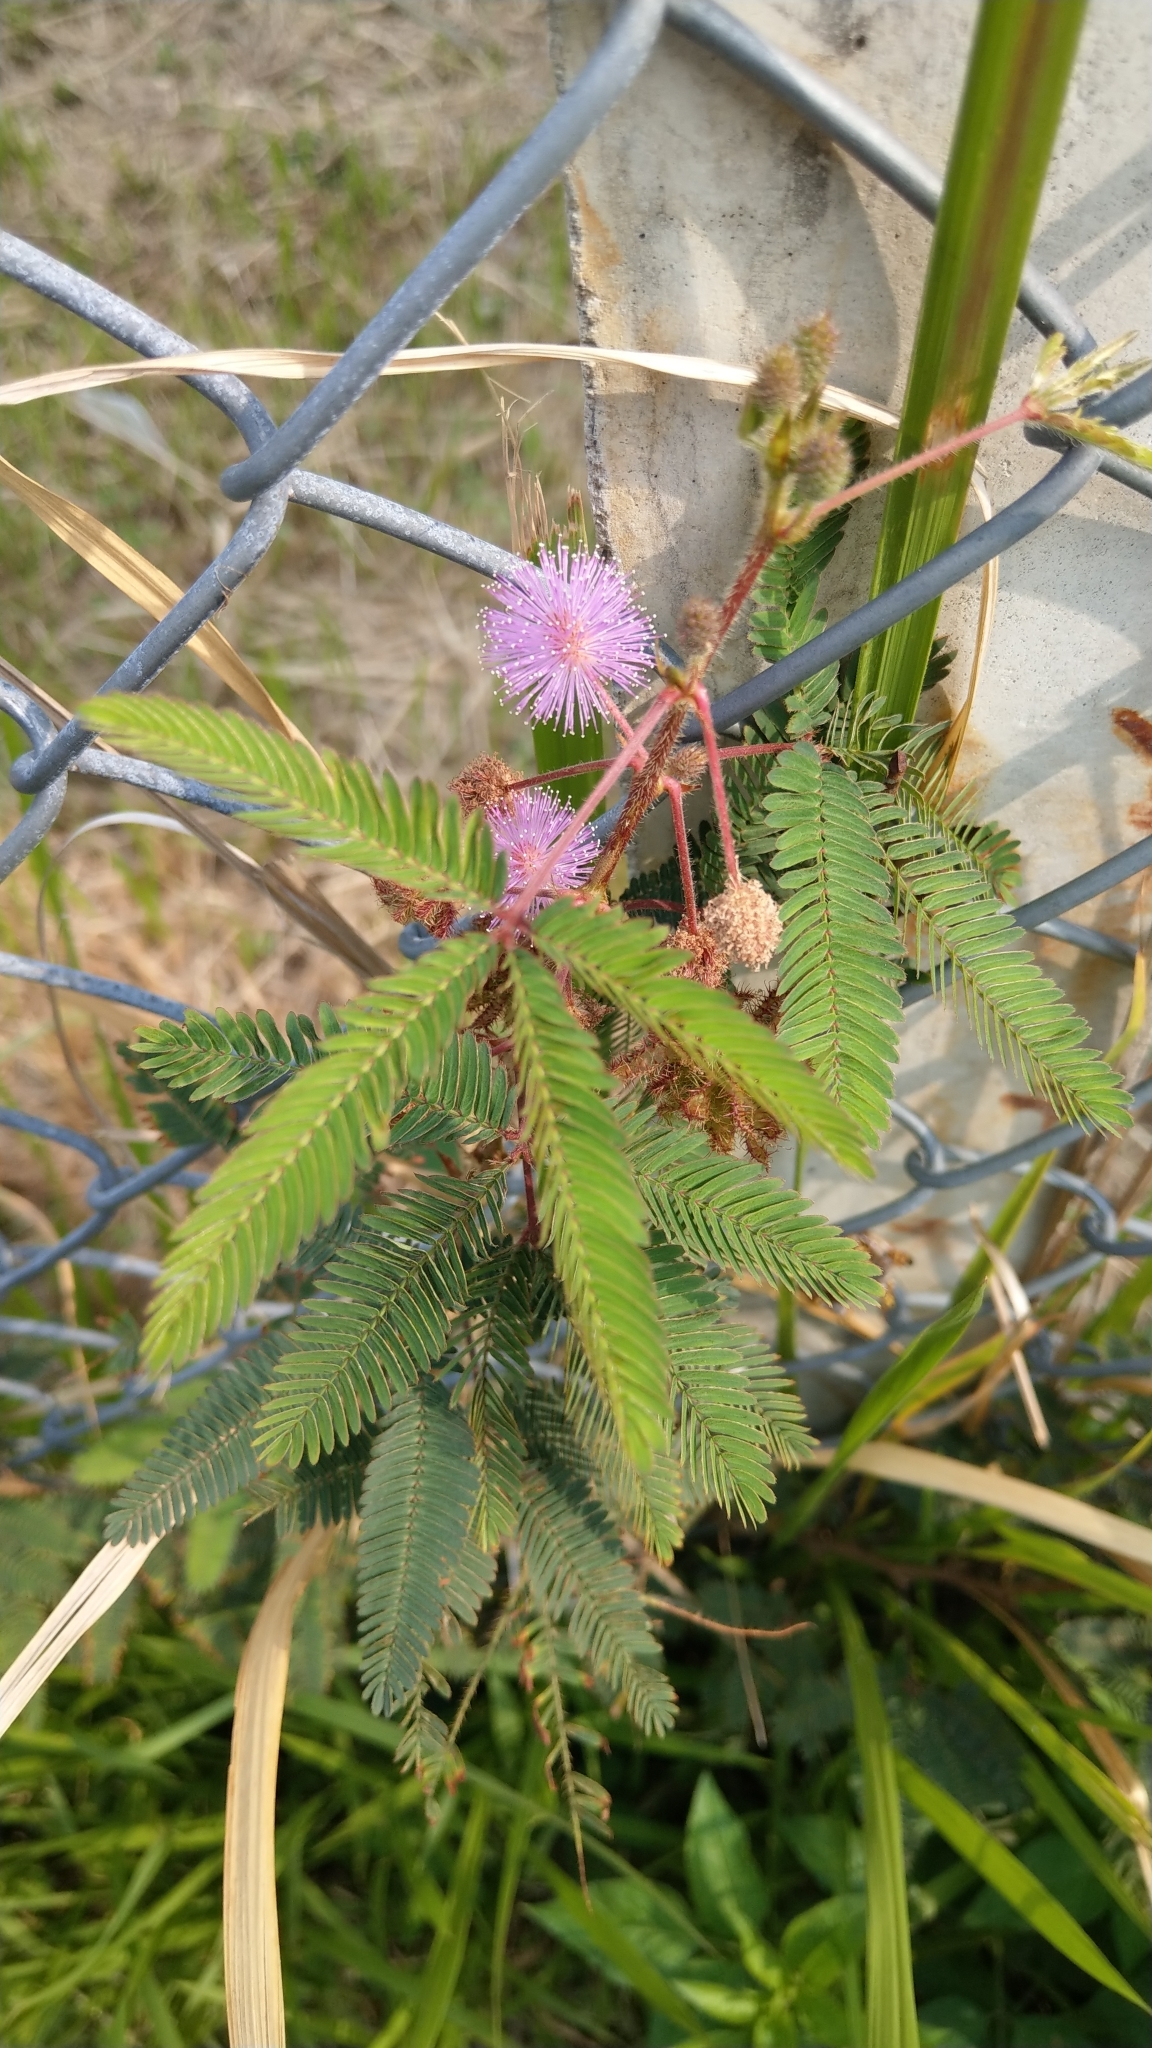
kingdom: Plantae
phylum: Tracheophyta
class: Magnoliopsida
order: Fabales
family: Fabaceae
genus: Mimosa
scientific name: Mimosa pudica
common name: Sensitive plant
